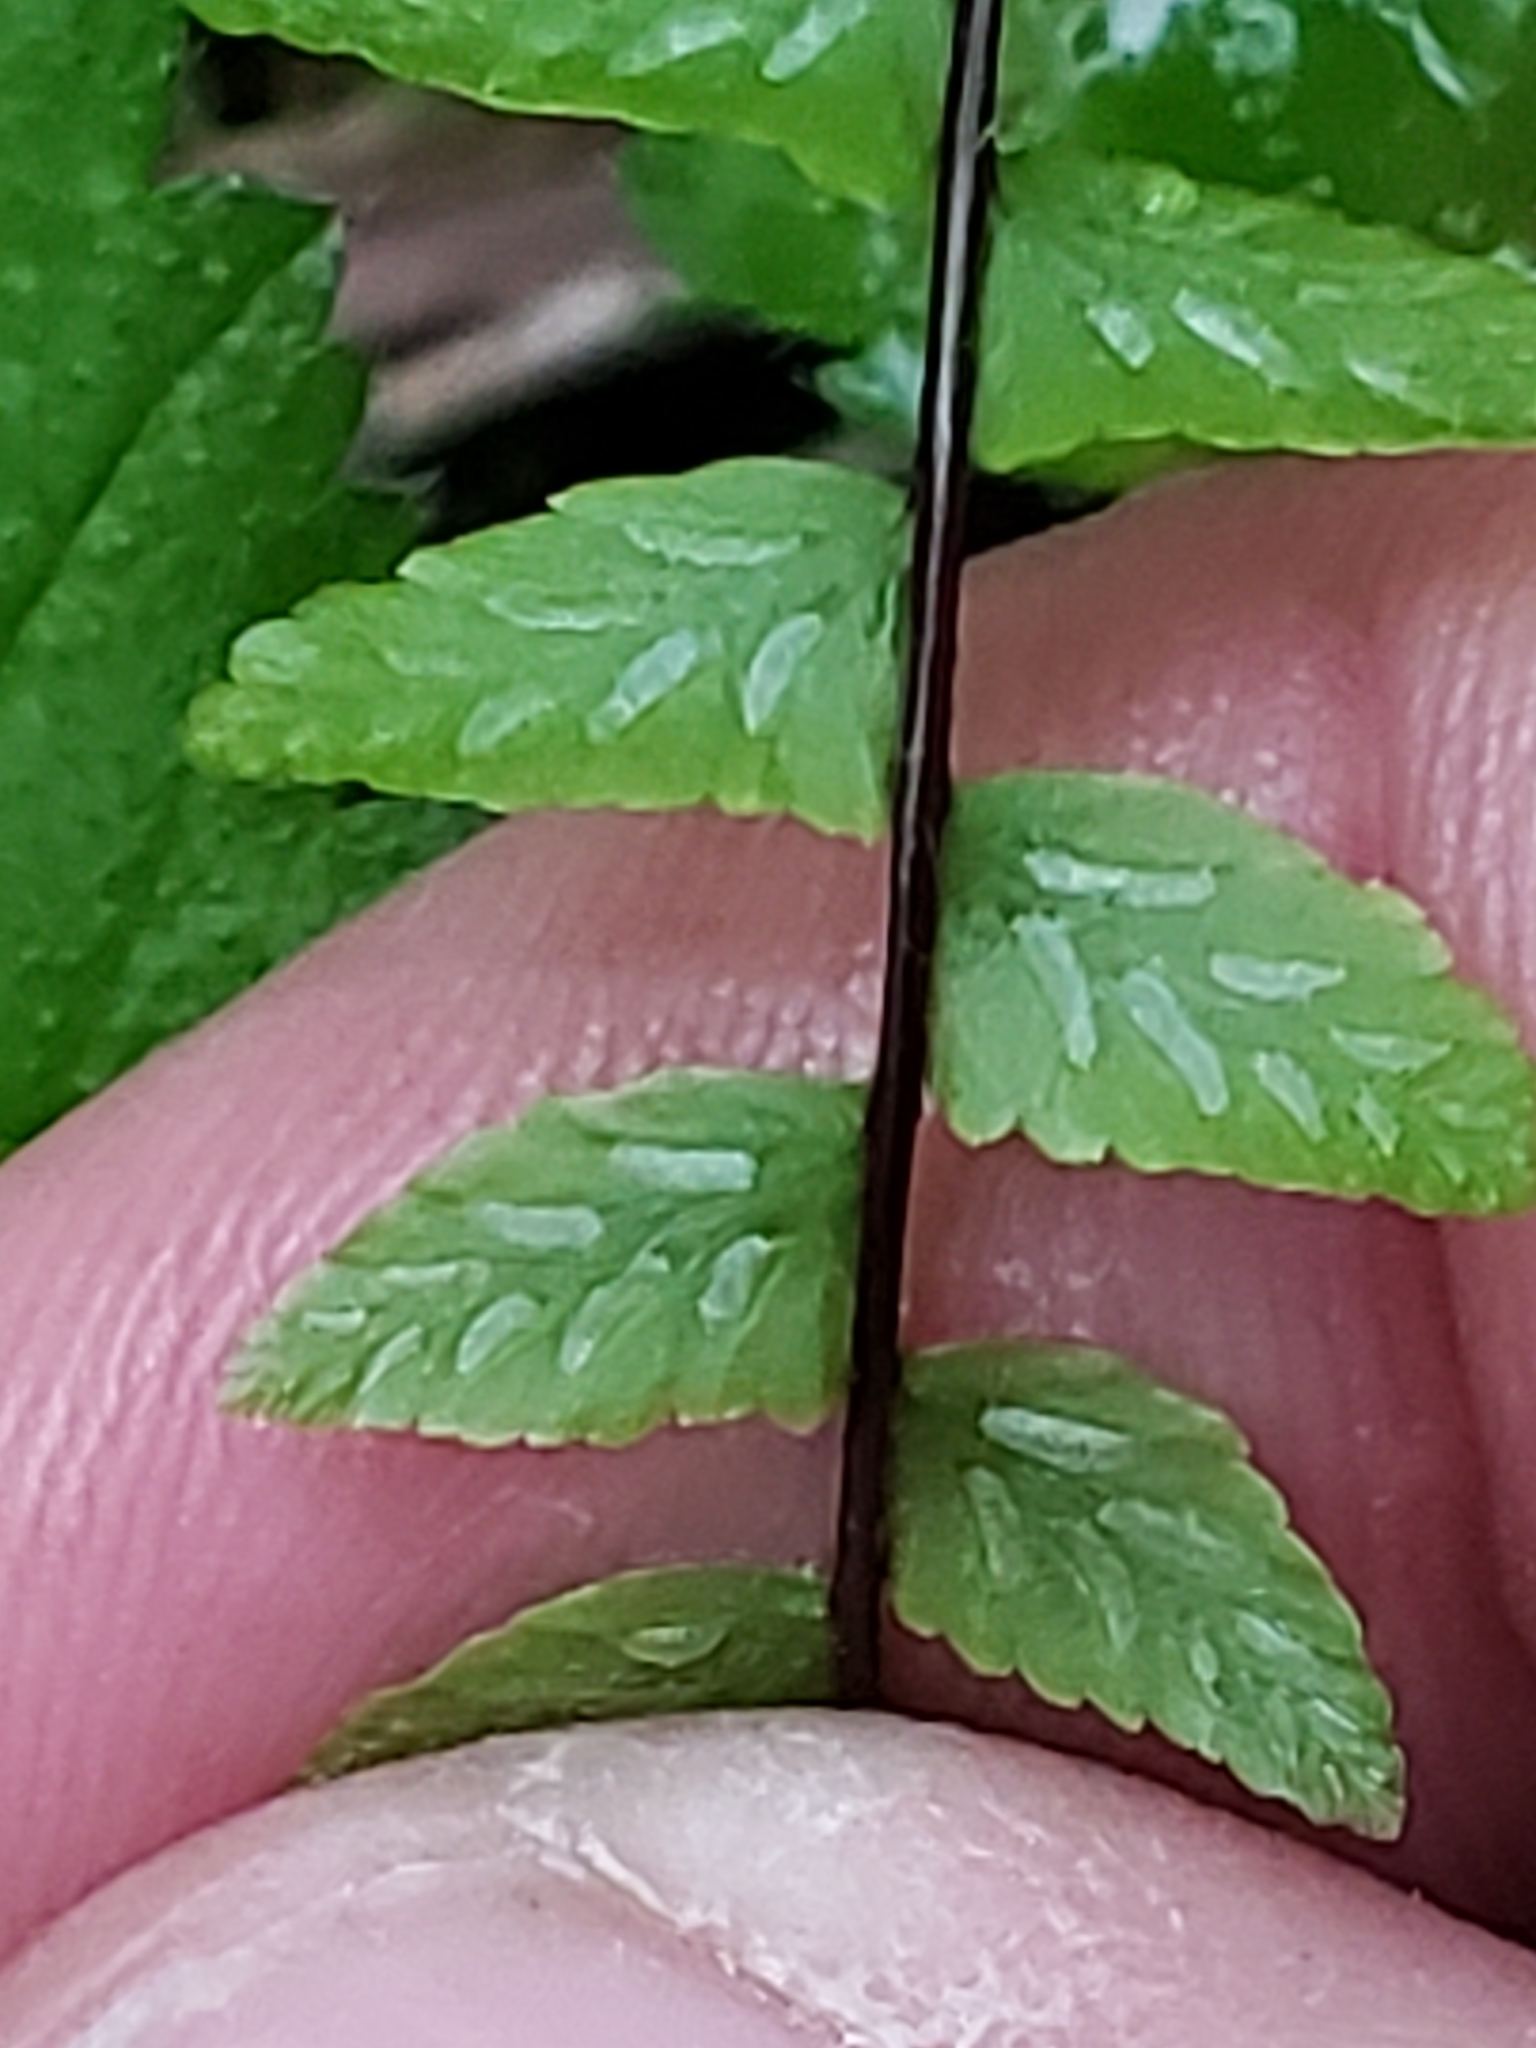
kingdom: Plantae
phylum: Tracheophyta
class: Polypodiopsida
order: Polypodiales
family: Aspleniaceae
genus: Asplenium
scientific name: Asplenium platyneuron
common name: Ebony spleenwort
